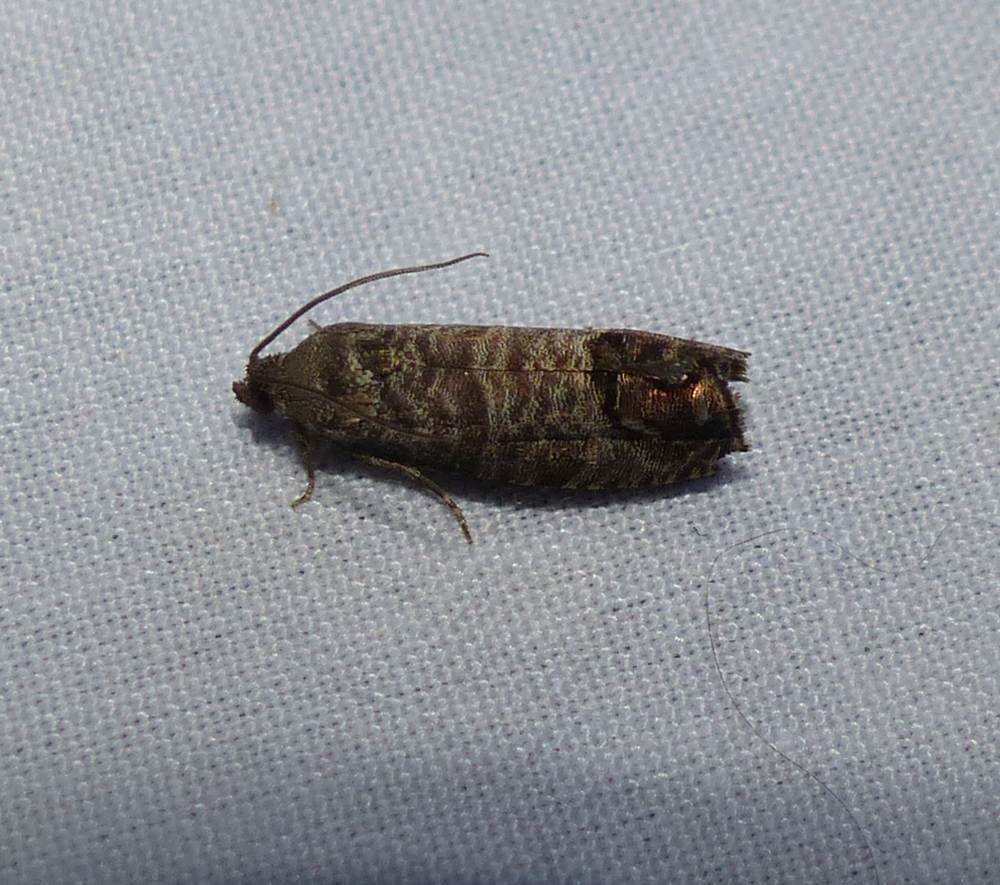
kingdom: Animalia
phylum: Arthropoda
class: Insecta
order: Lepidoptera
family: Tortricidae
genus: Cydia
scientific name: Cydia pomonella
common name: Codling moth
